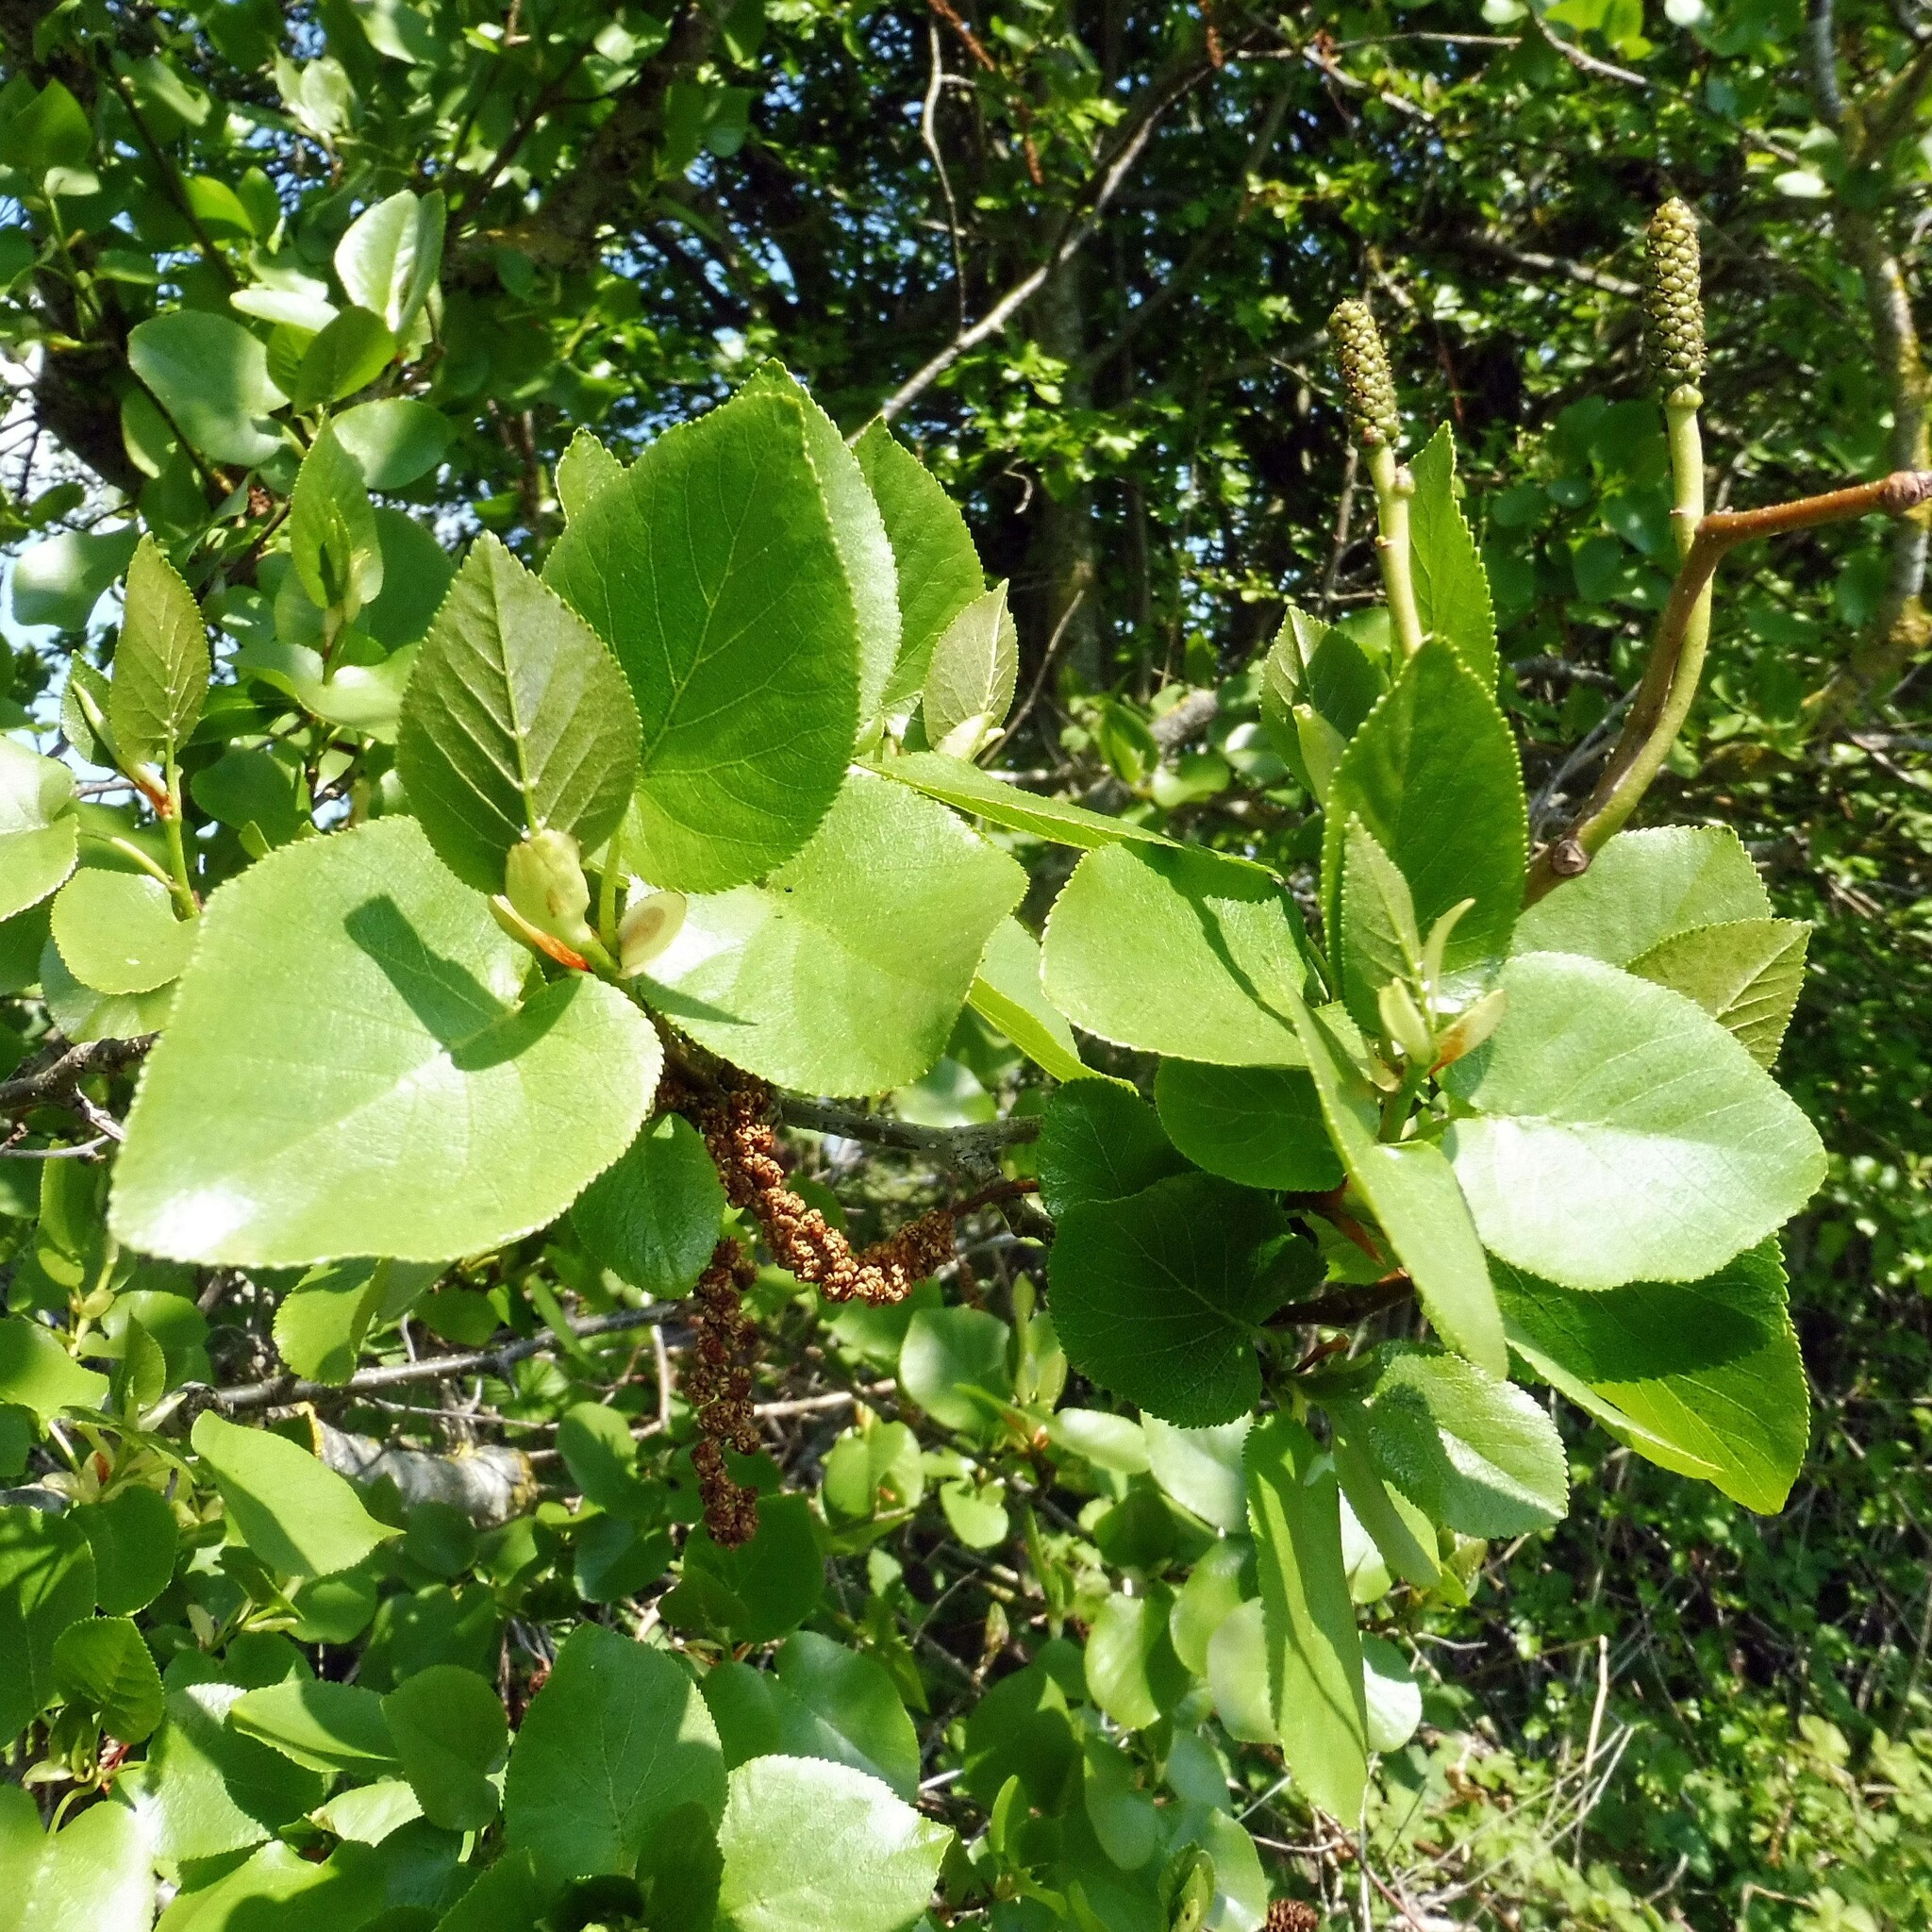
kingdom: Plantae
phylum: Tracheophyta
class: Magnoliopsida
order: Fagales
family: Betulaceae
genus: Alnus
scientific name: Alnus cordata
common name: Italian alder
